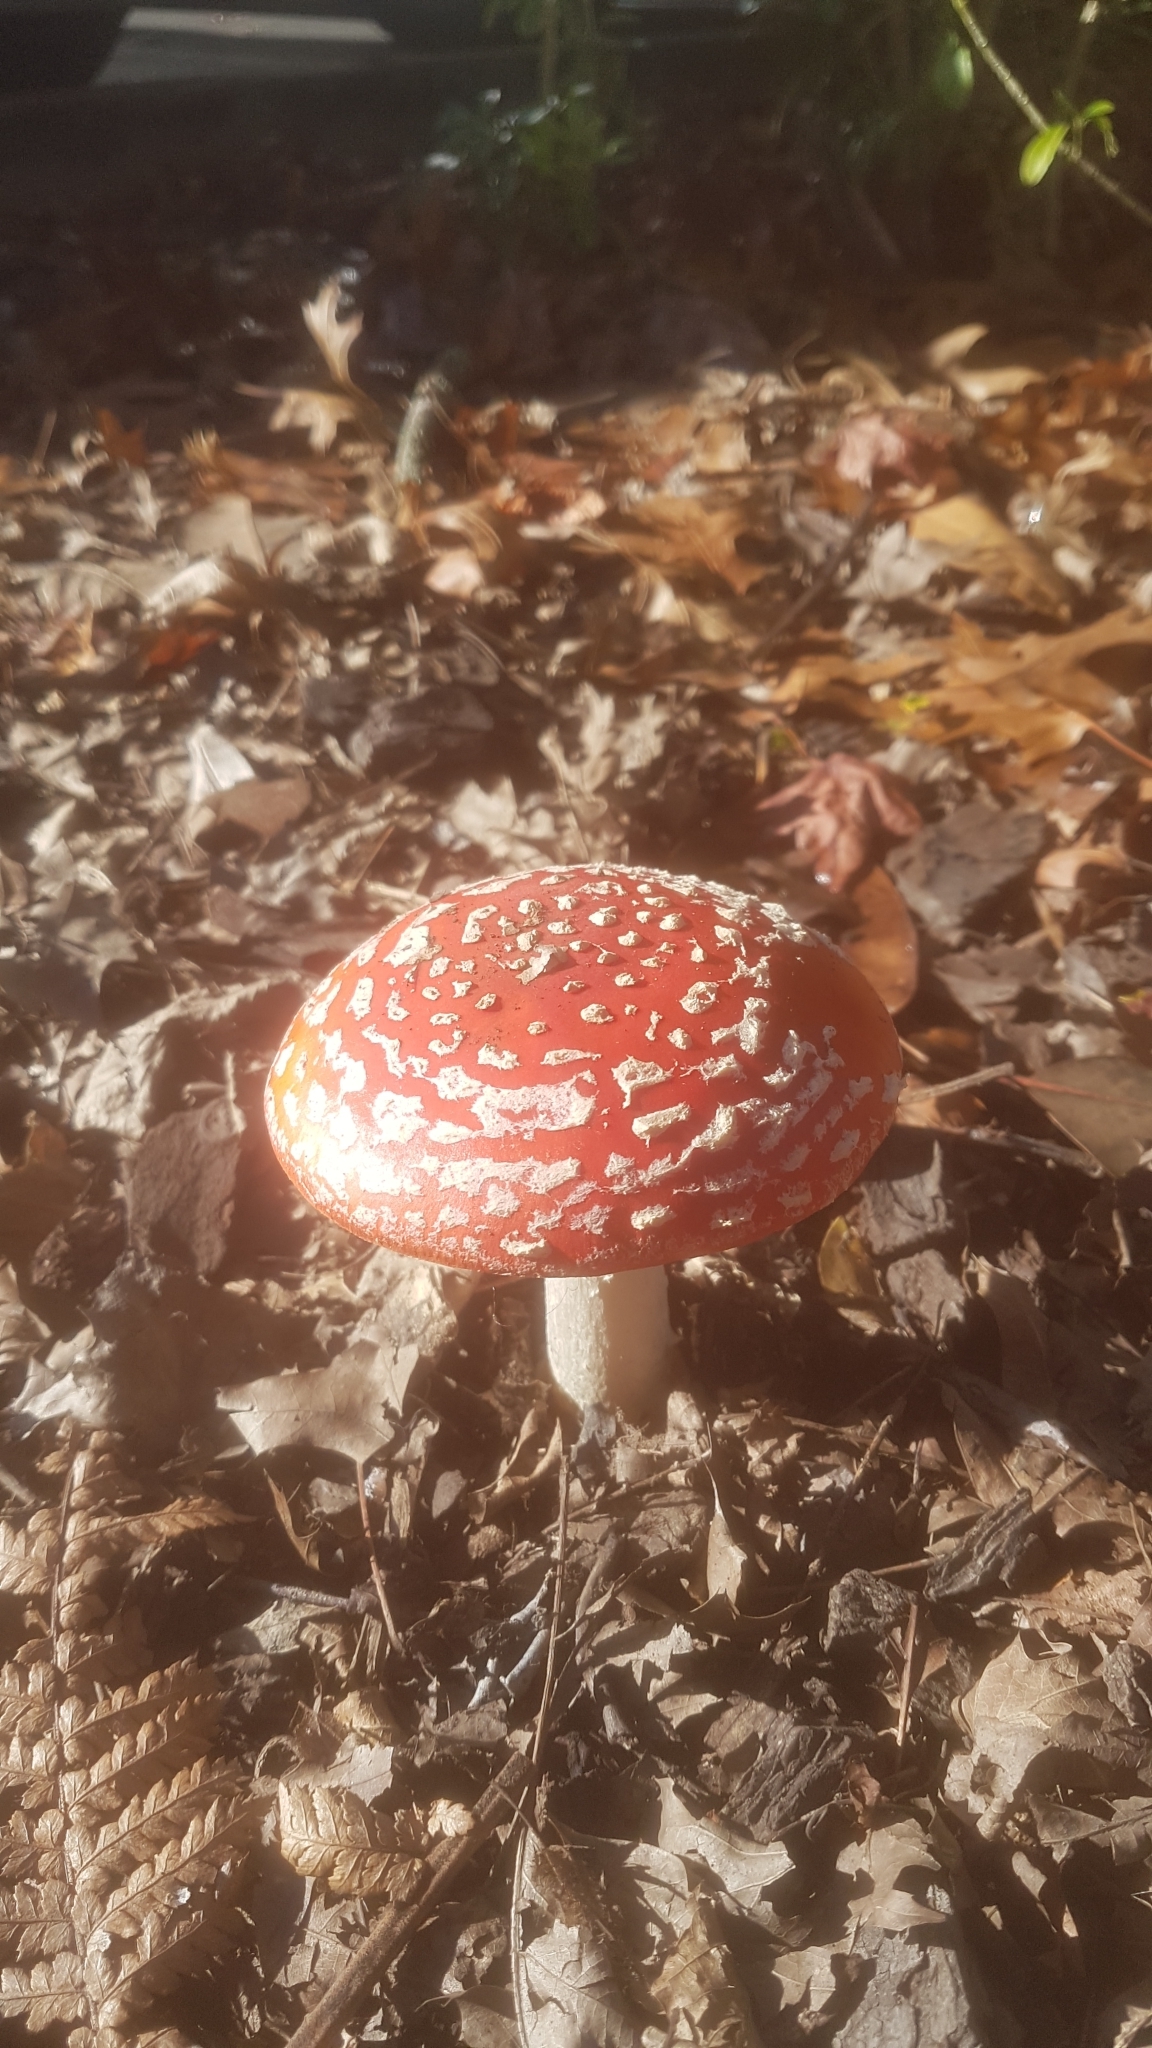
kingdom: Fungi
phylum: Basidiomycota
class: Agaricomycetes
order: Agaricales
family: Amanitaceae
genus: Amanita
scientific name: Amanita muscaria
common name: Fly agaric
